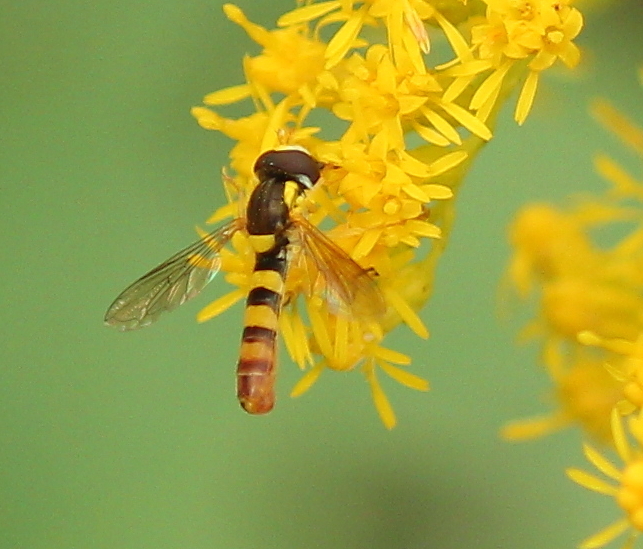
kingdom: Animalia
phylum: Arthropoda
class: Insecta
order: Diptera
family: Syrphidae
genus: Sphaerophoria
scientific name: Sphaerophoria contigua
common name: Tufted globetail
